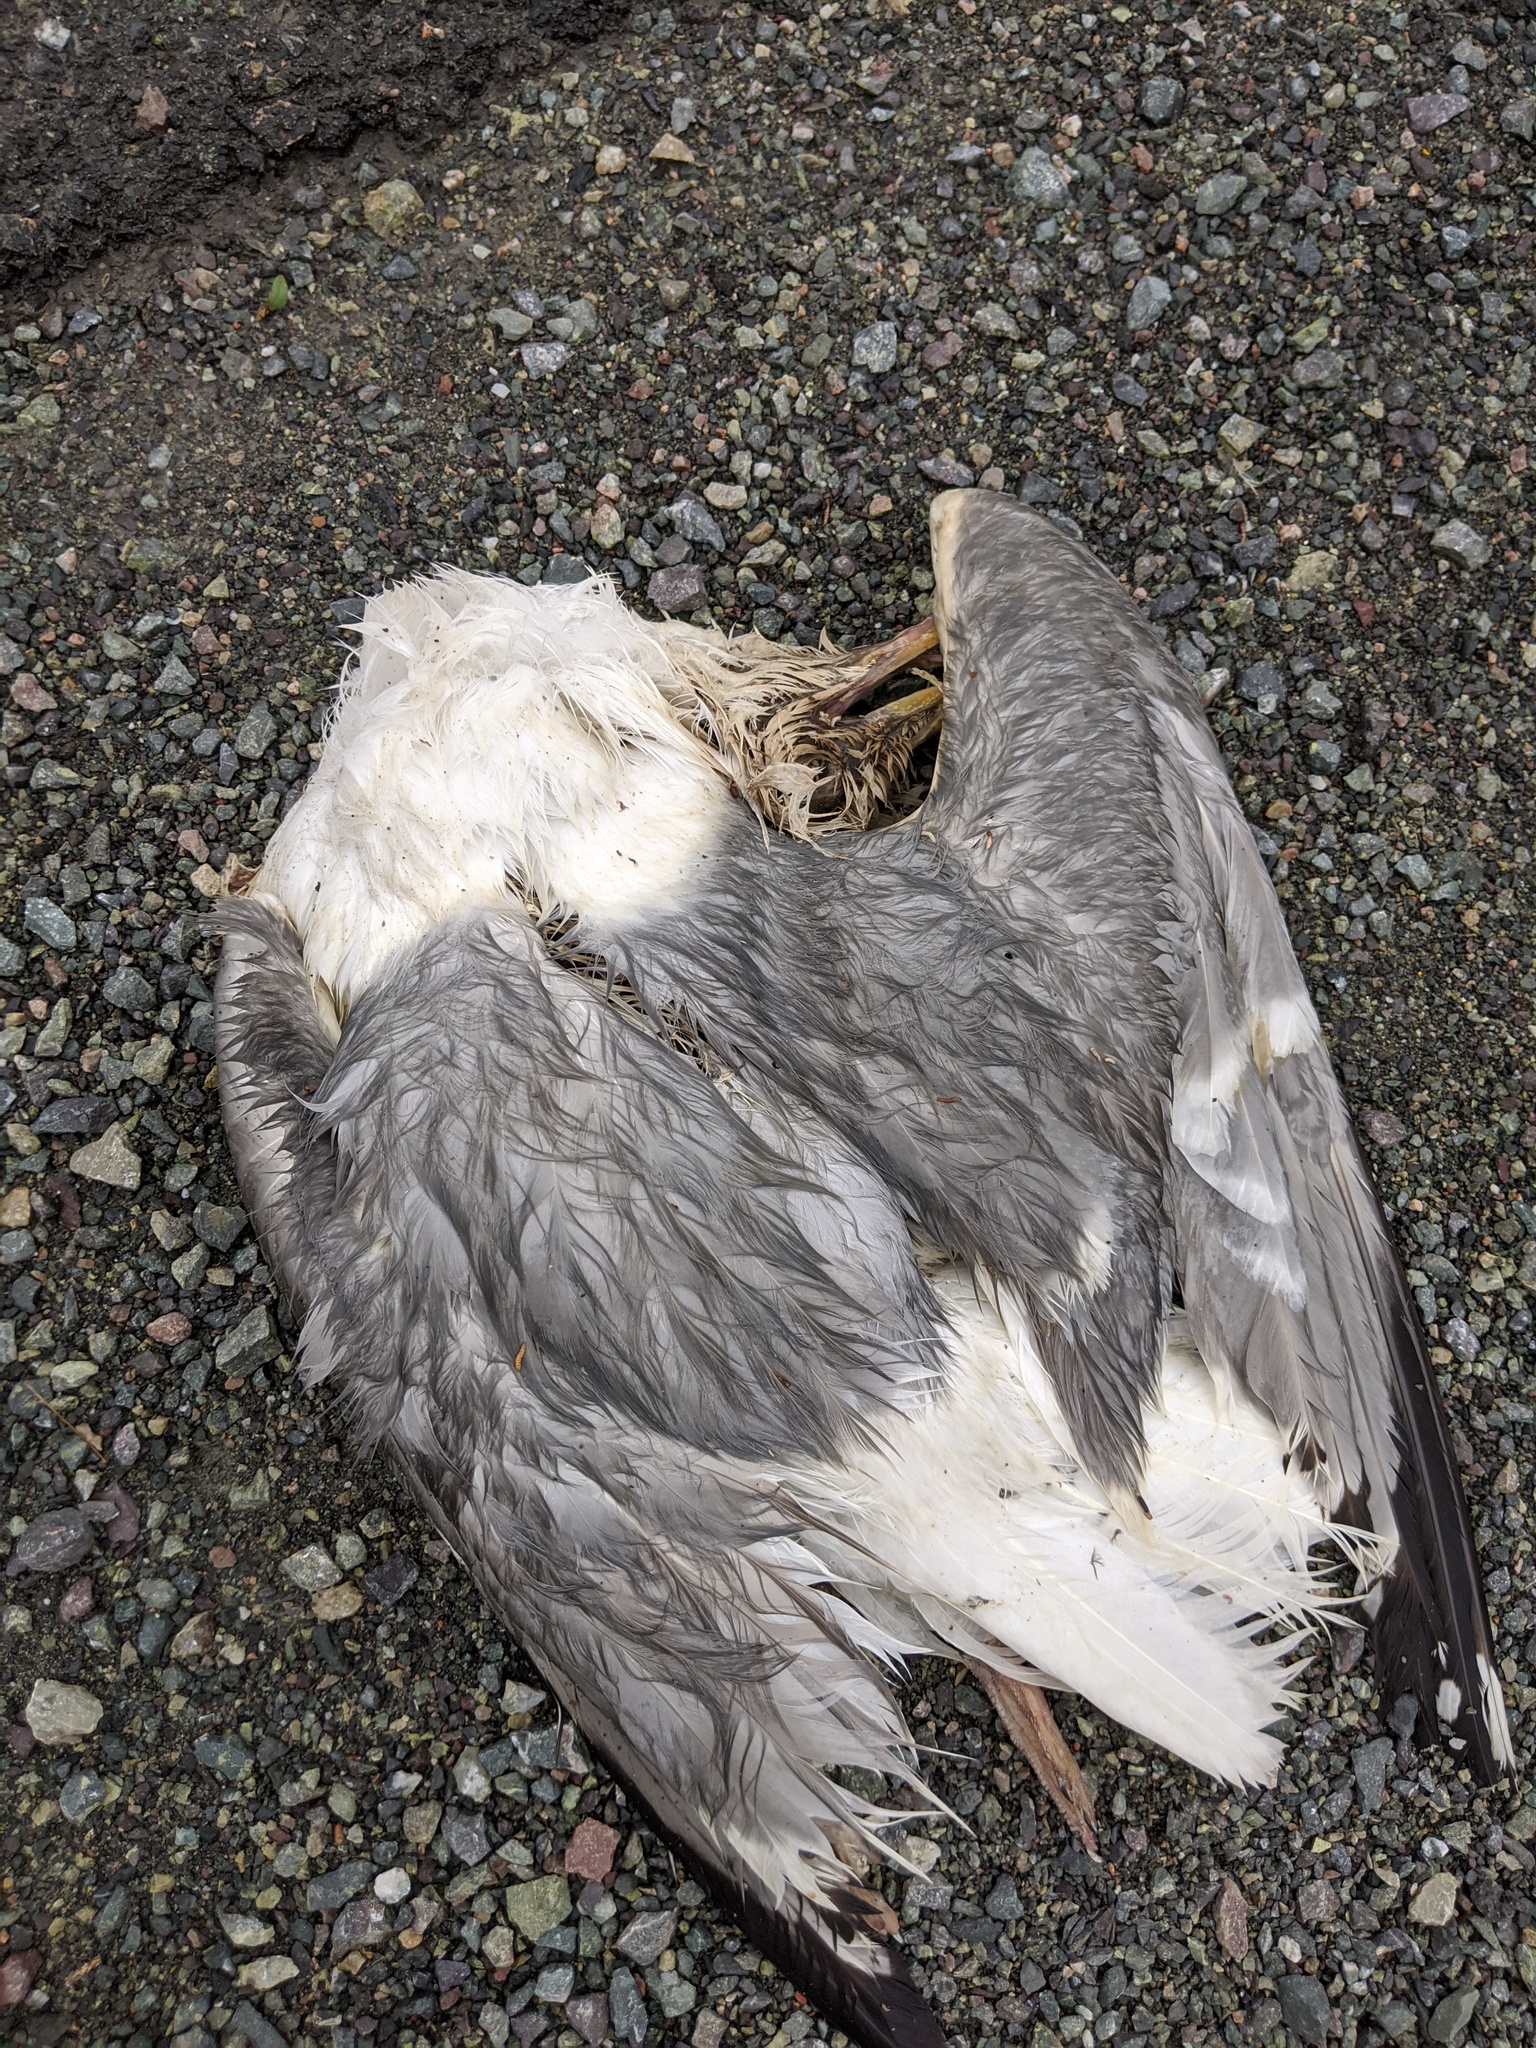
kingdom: Animalia
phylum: Chordata
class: Aves
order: Charadriiformes
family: Laridae
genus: Larus
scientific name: Larus argentatus
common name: Herring gull
